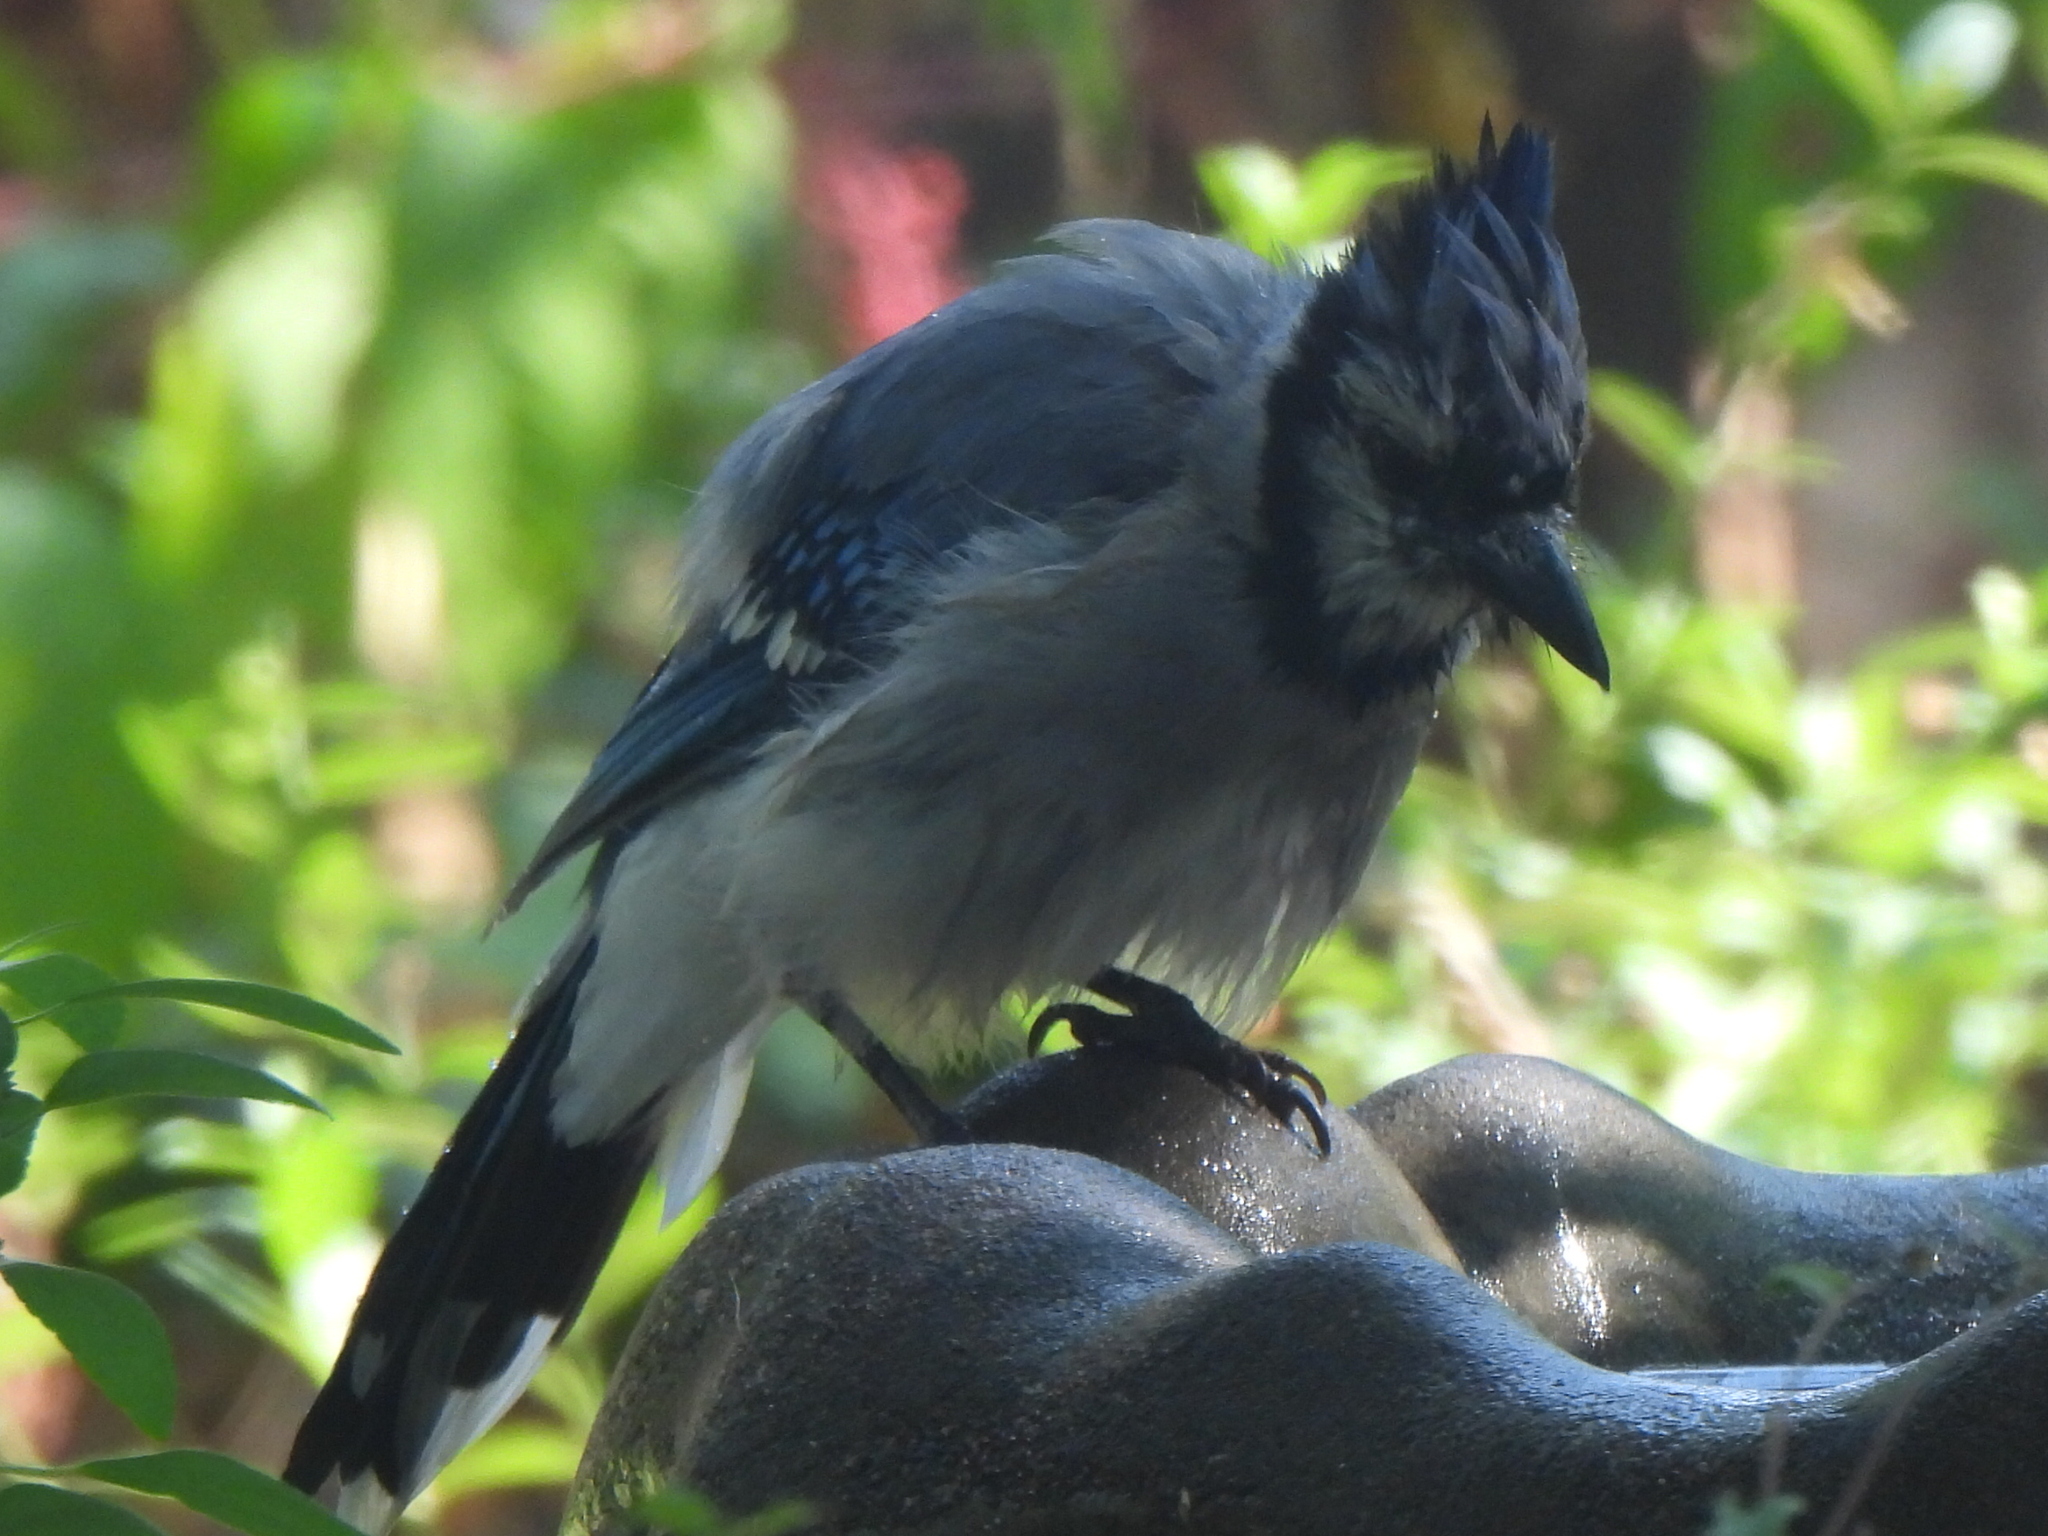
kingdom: Animalia
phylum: Chordata
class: Aves
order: Passeriformes
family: Corvidae
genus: Cyanocitta
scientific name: Cyanocitta cristata
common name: Blue jay
